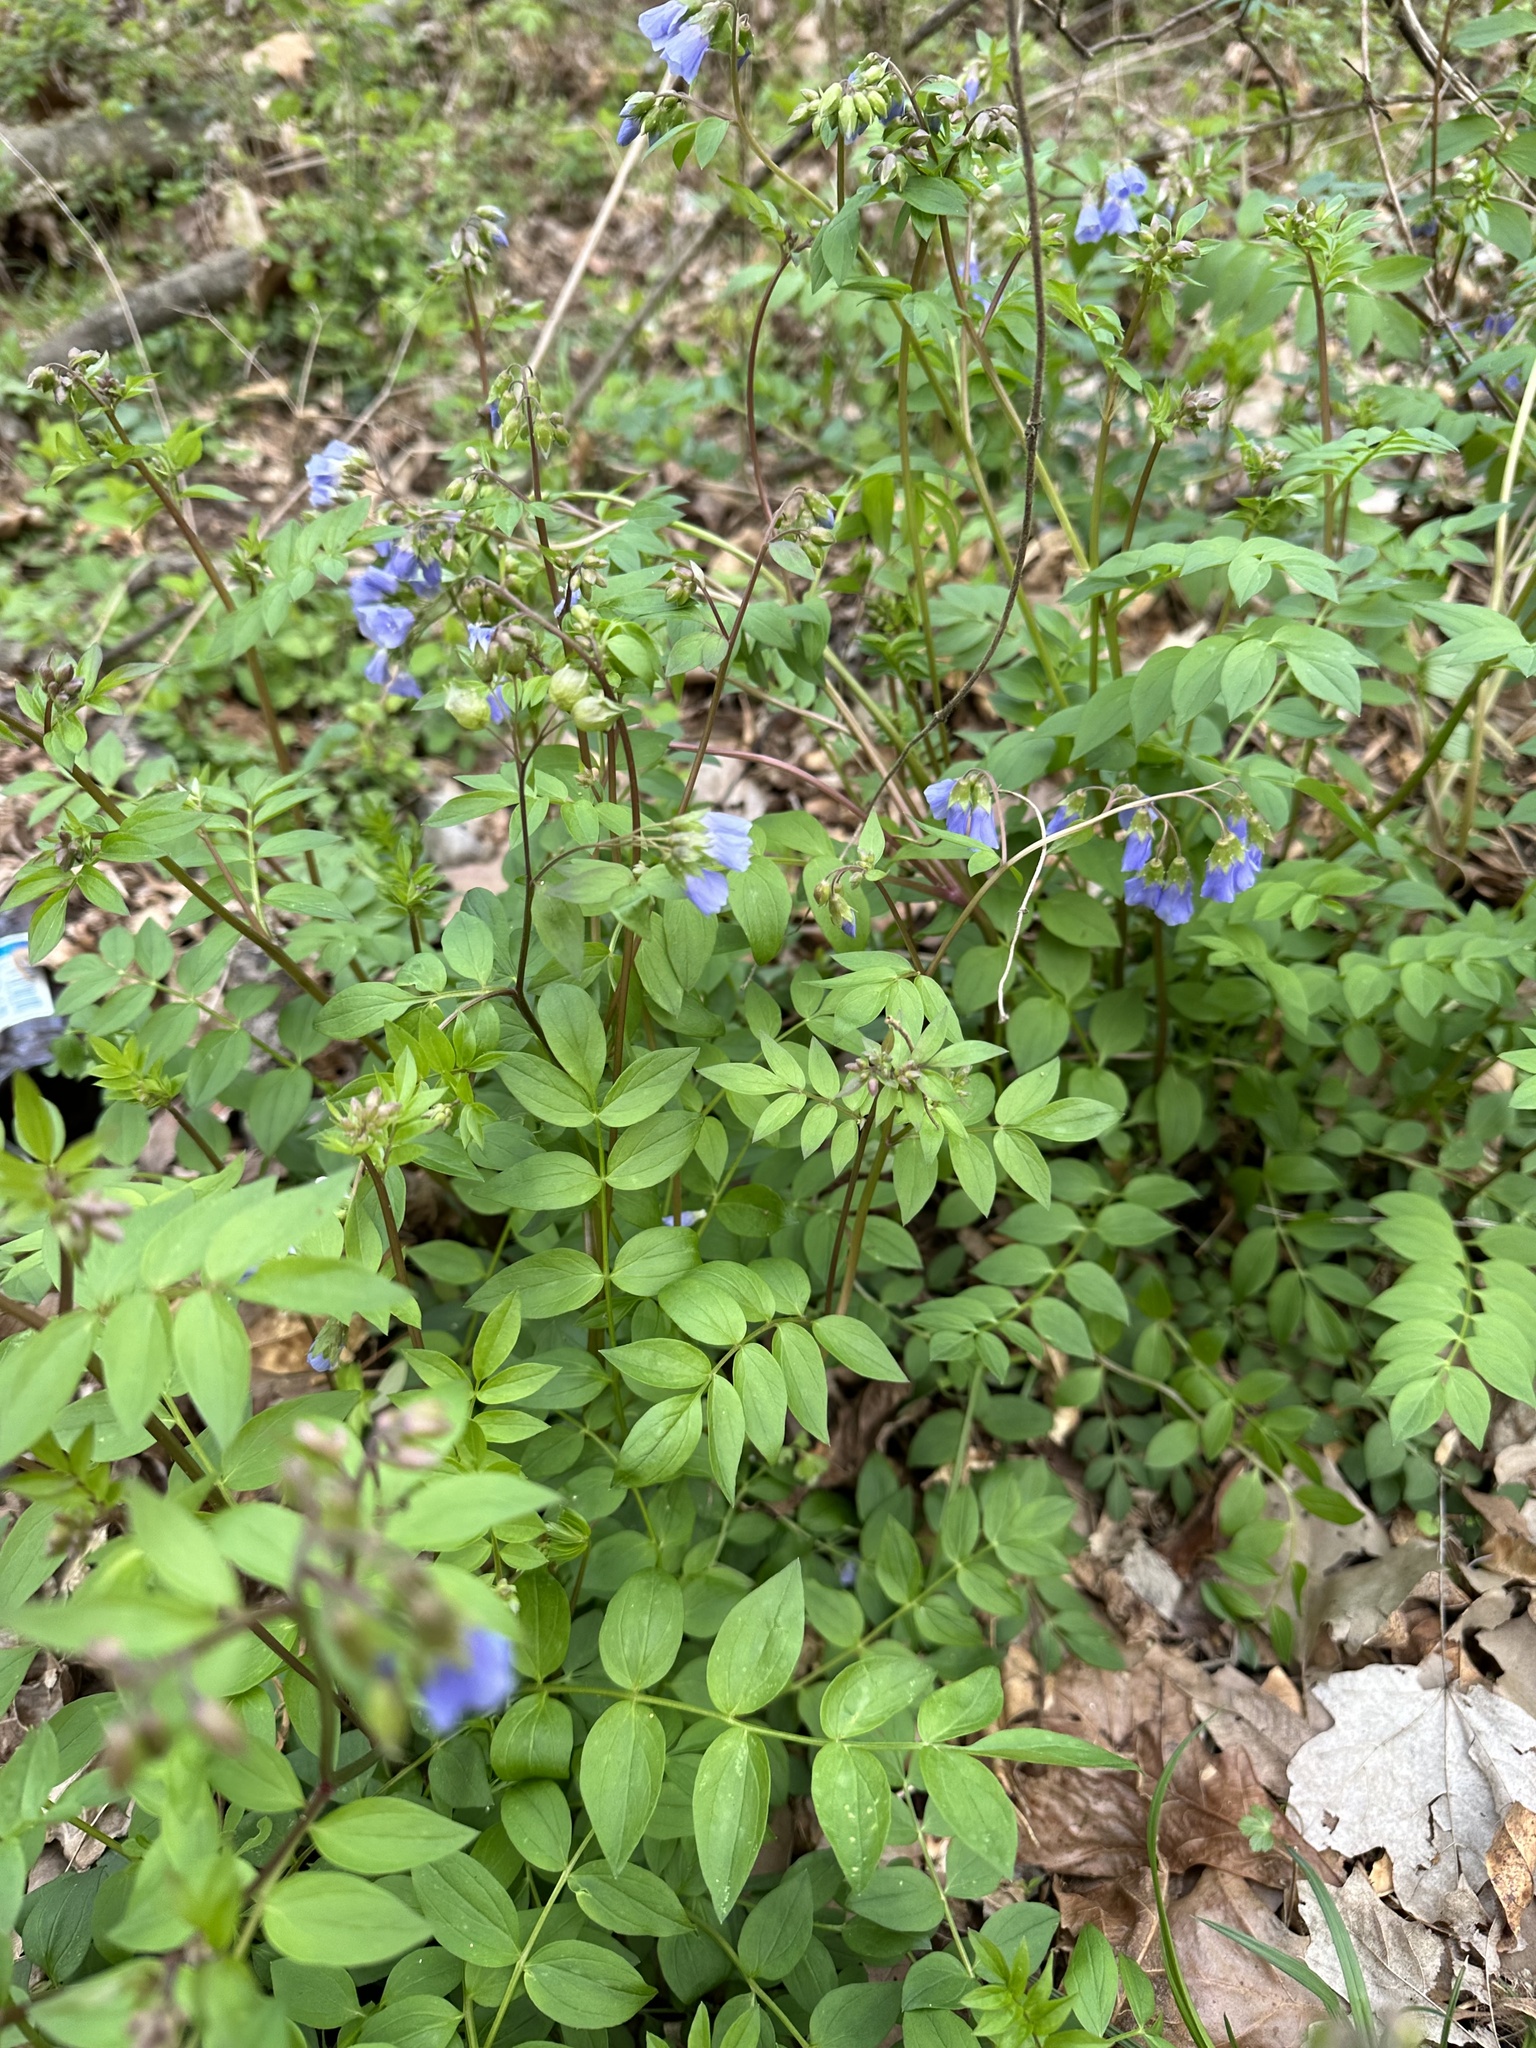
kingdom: Plantae
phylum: Tracheophyta
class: Magnoliopsida
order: Ericales
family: Polemoniaceae
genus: Polemonium
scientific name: Polemonium reptans
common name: Creeping jacob's-ladder
